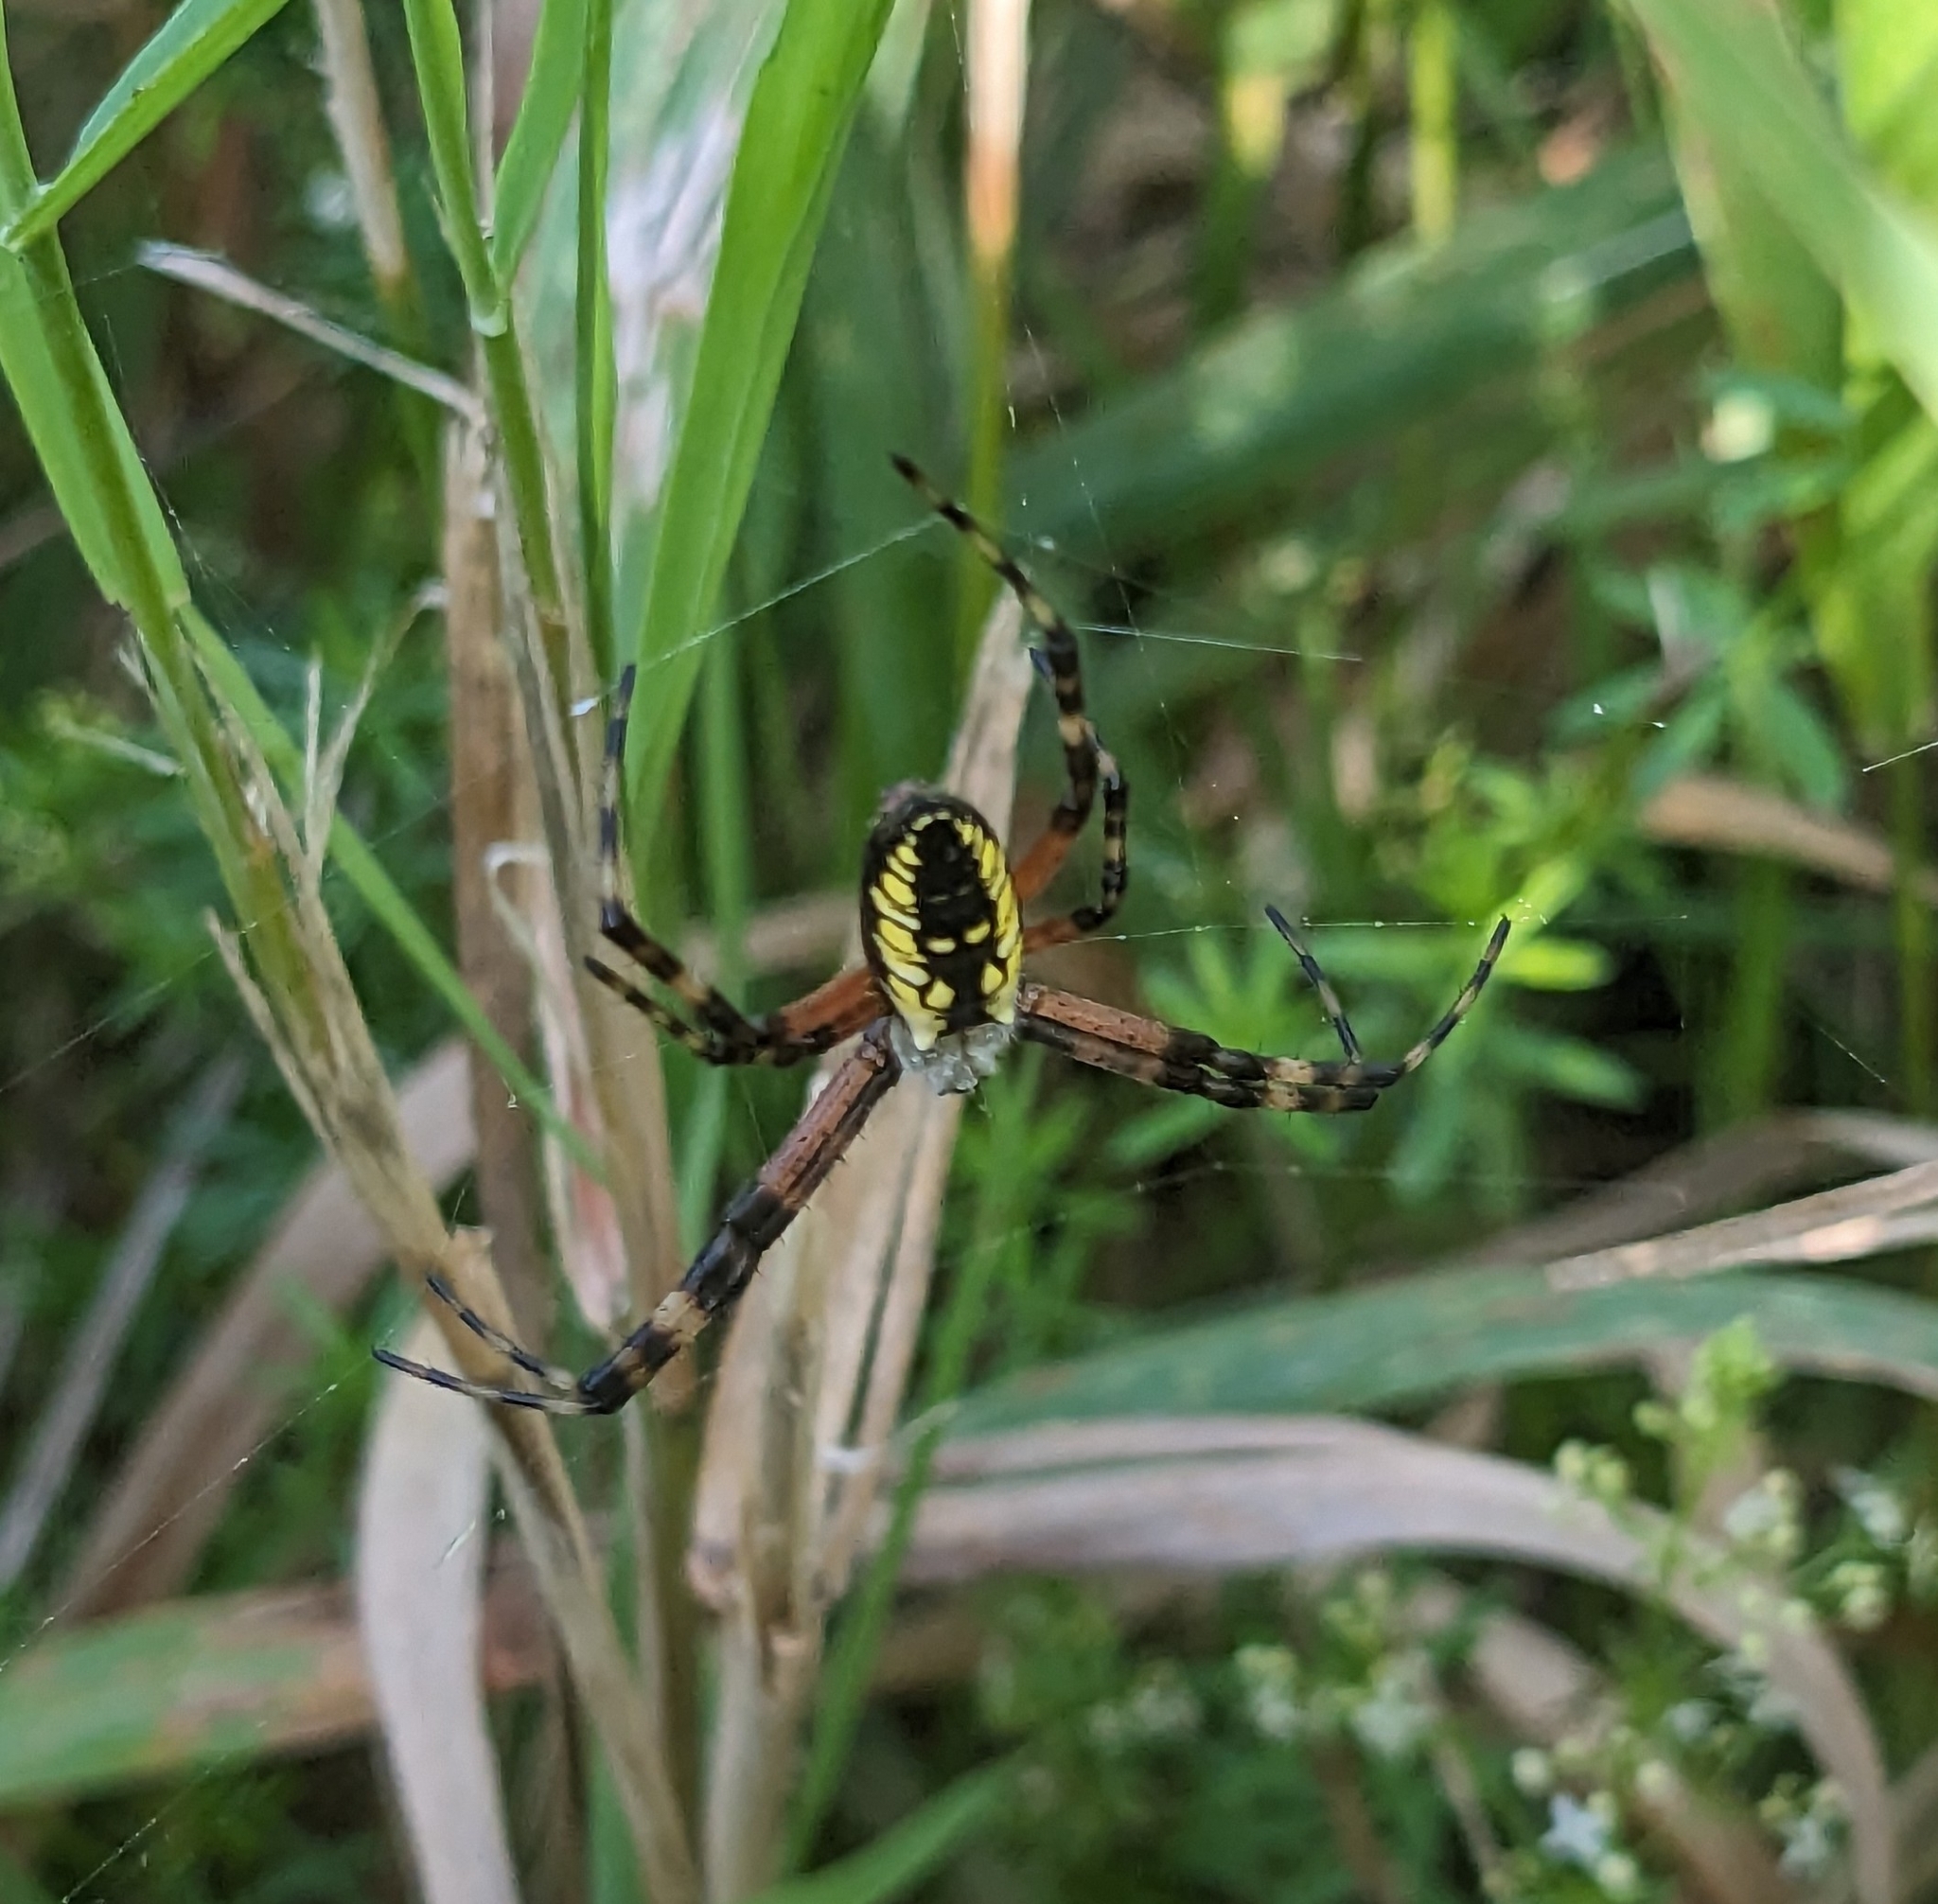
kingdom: Animalia
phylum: Arthropoda
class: Arachnida
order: Araneae
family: Araneidae
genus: Argiope
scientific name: Argiope aurantia
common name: Orb weavers
